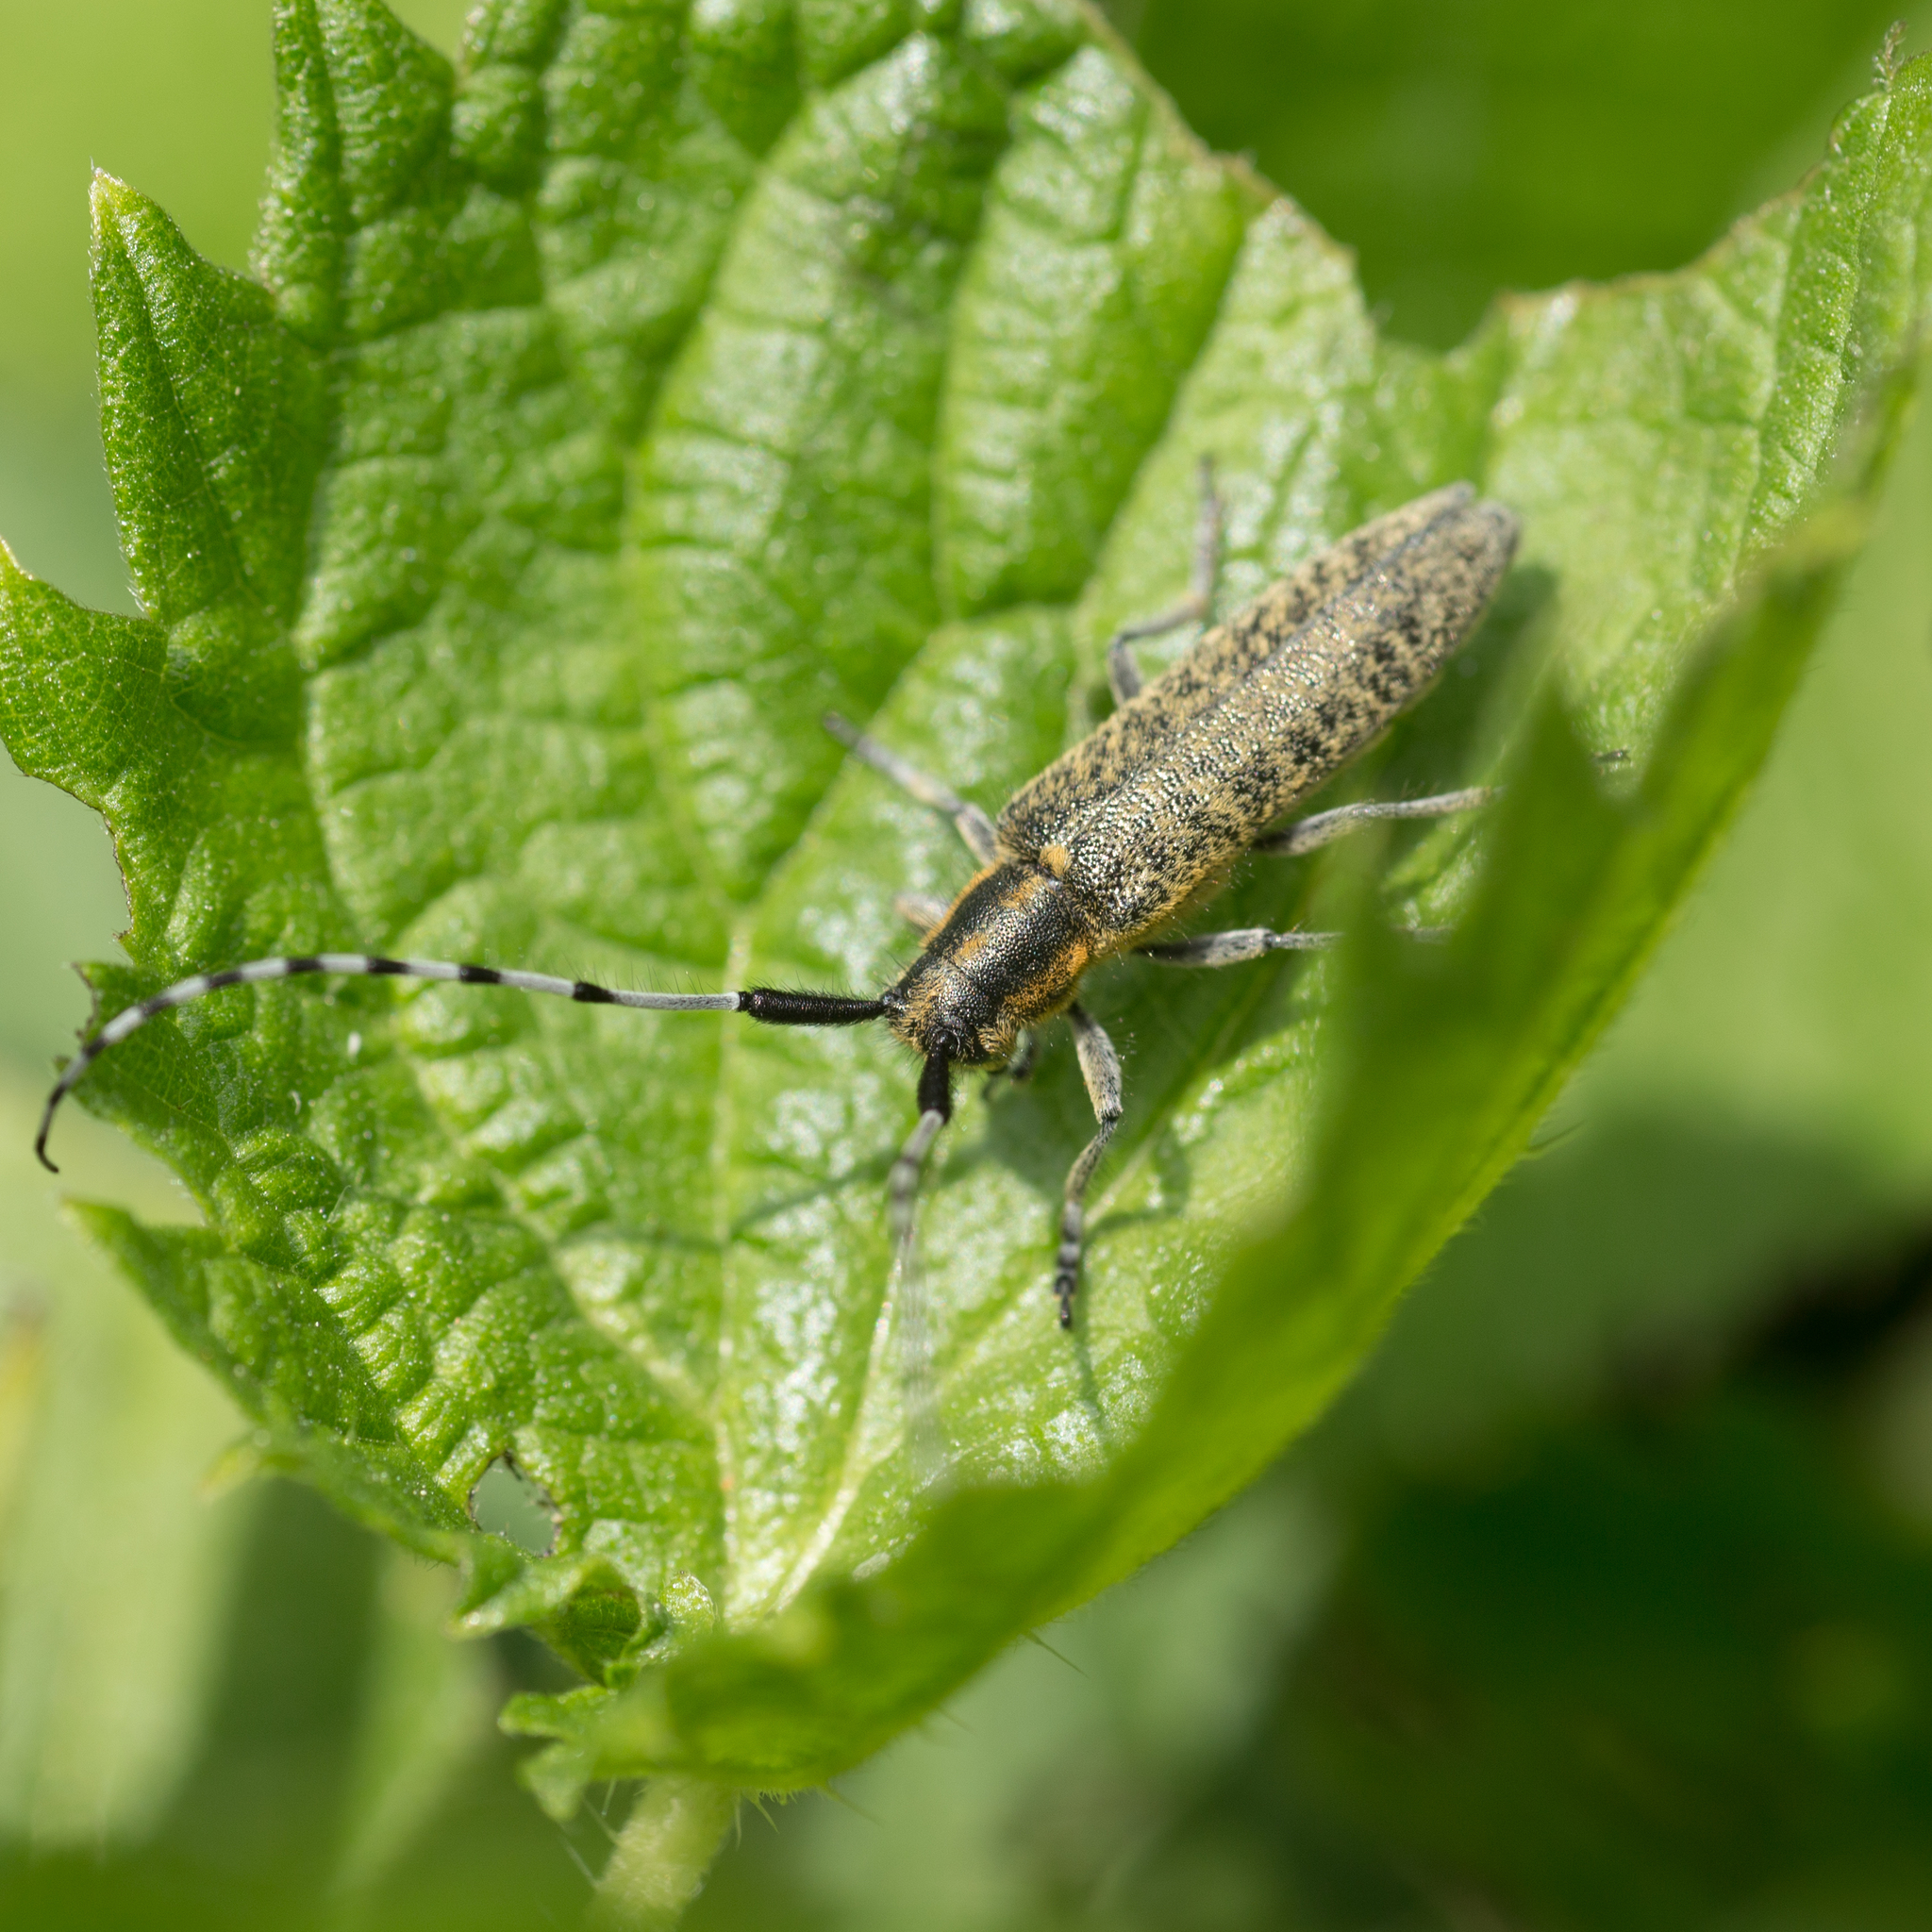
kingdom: Animalia
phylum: Arthropoda
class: Insecta
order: Coleoptera
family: Cerambycidae
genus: Agapanthia
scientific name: Agapanthia villosoviridescens
